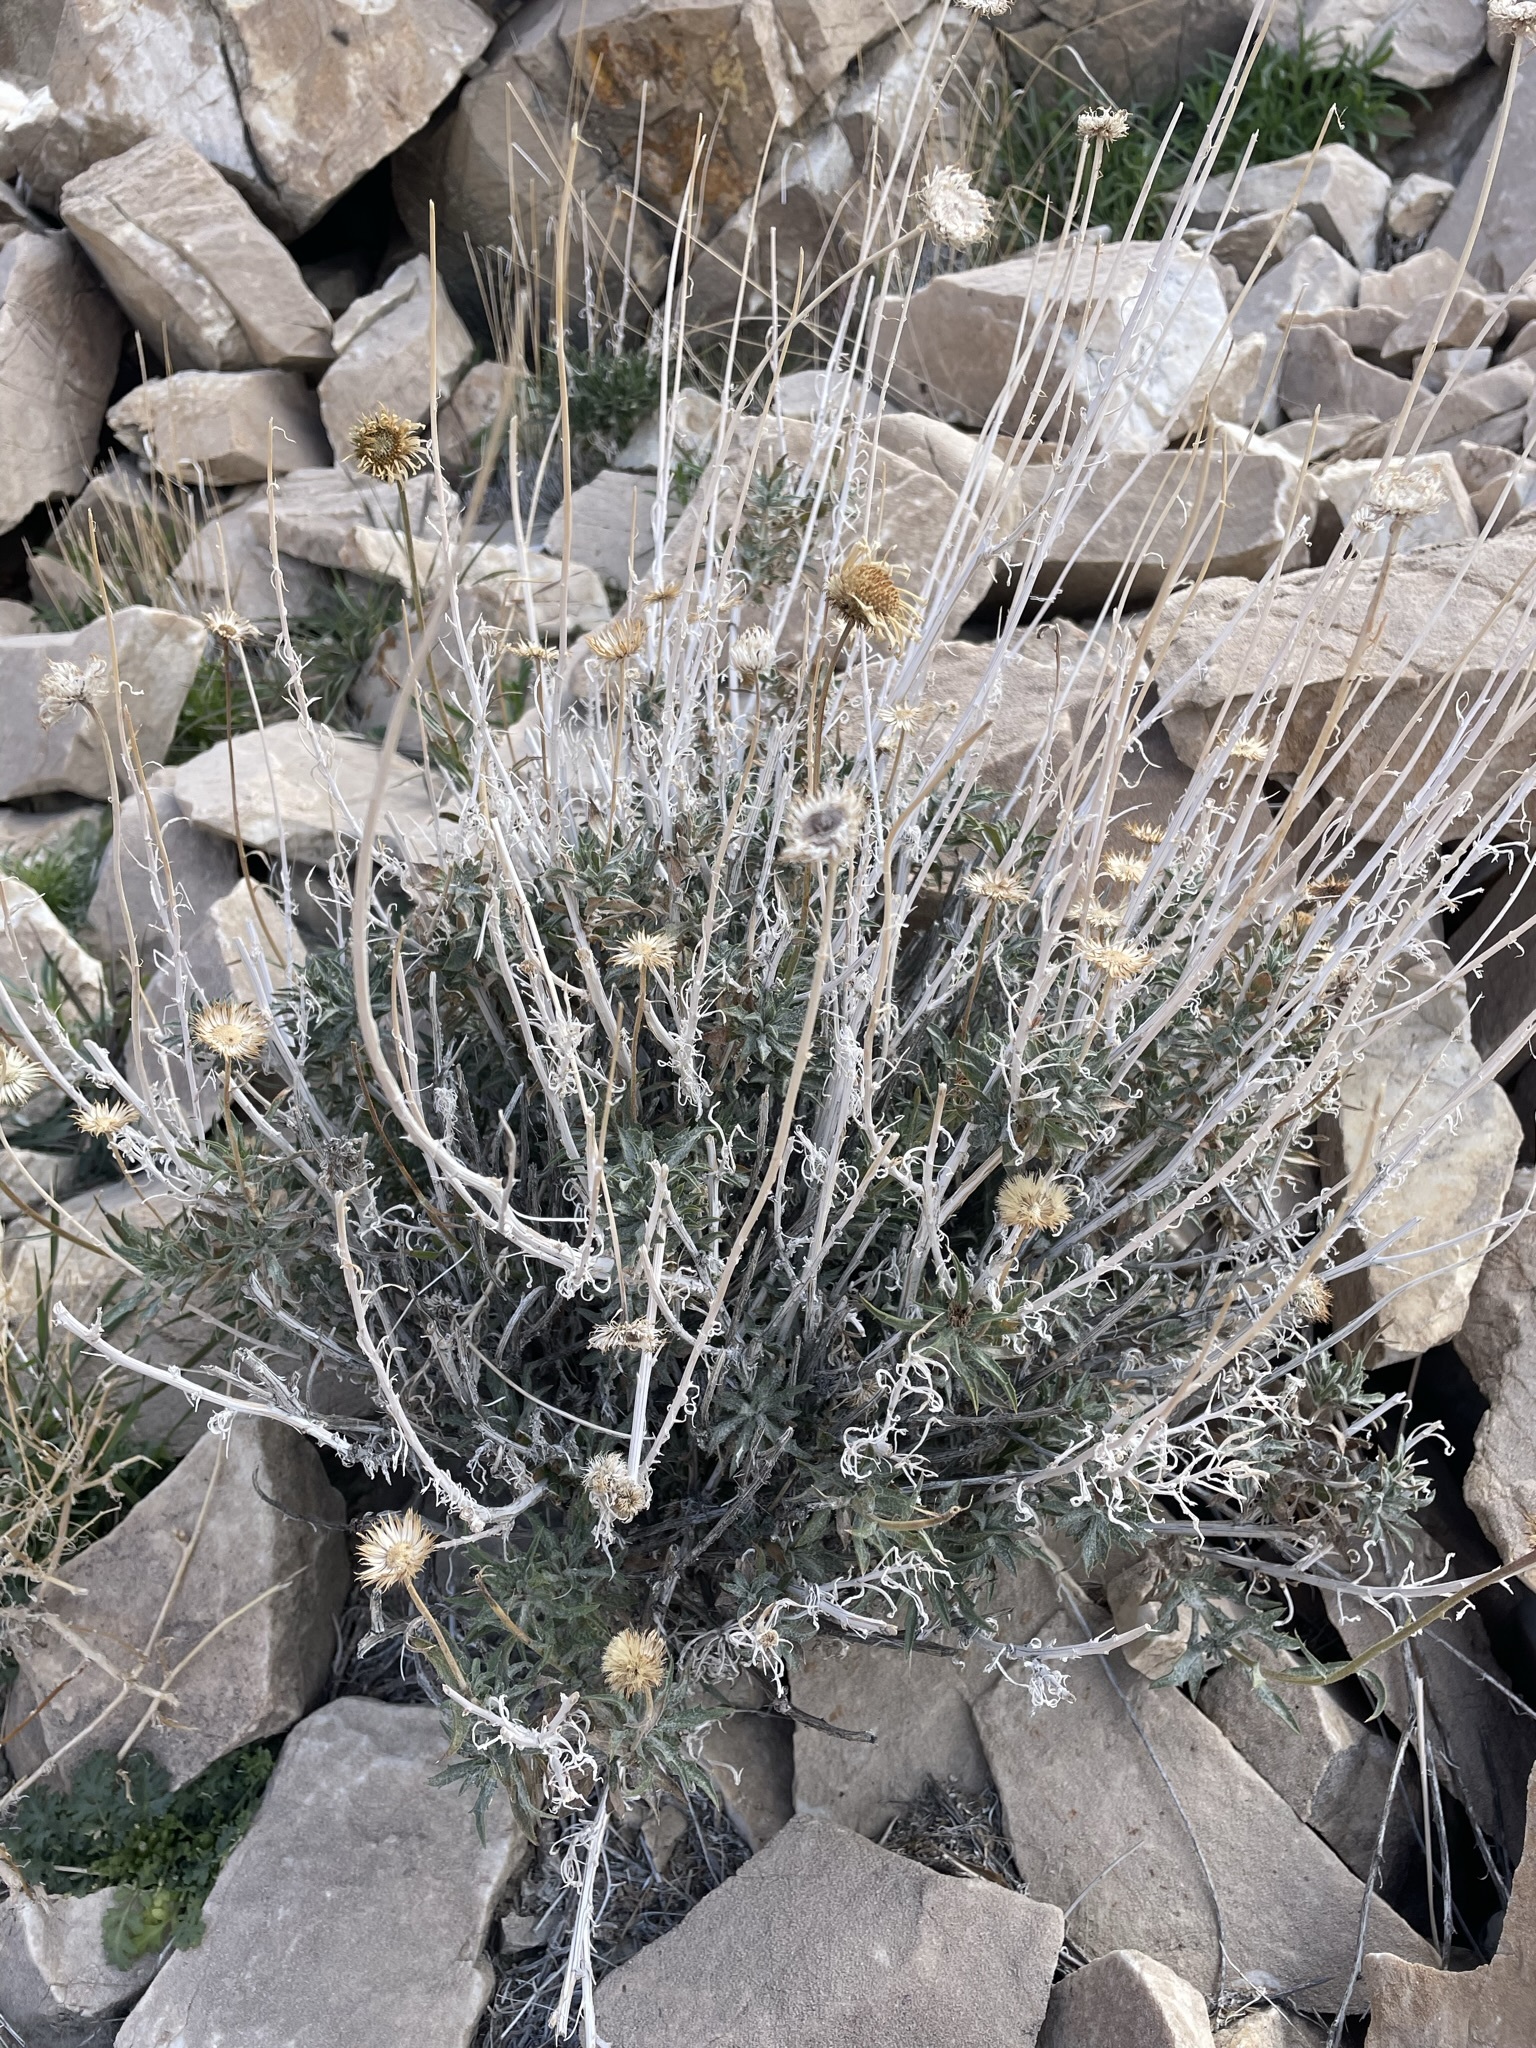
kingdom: Plantae
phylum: Tracheophyta
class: Magnoliopsida
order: Asterales
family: Asteraceae
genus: Xylorhiza
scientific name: Xylorhiza tortifolia
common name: Hurt-leaf woody-aster
